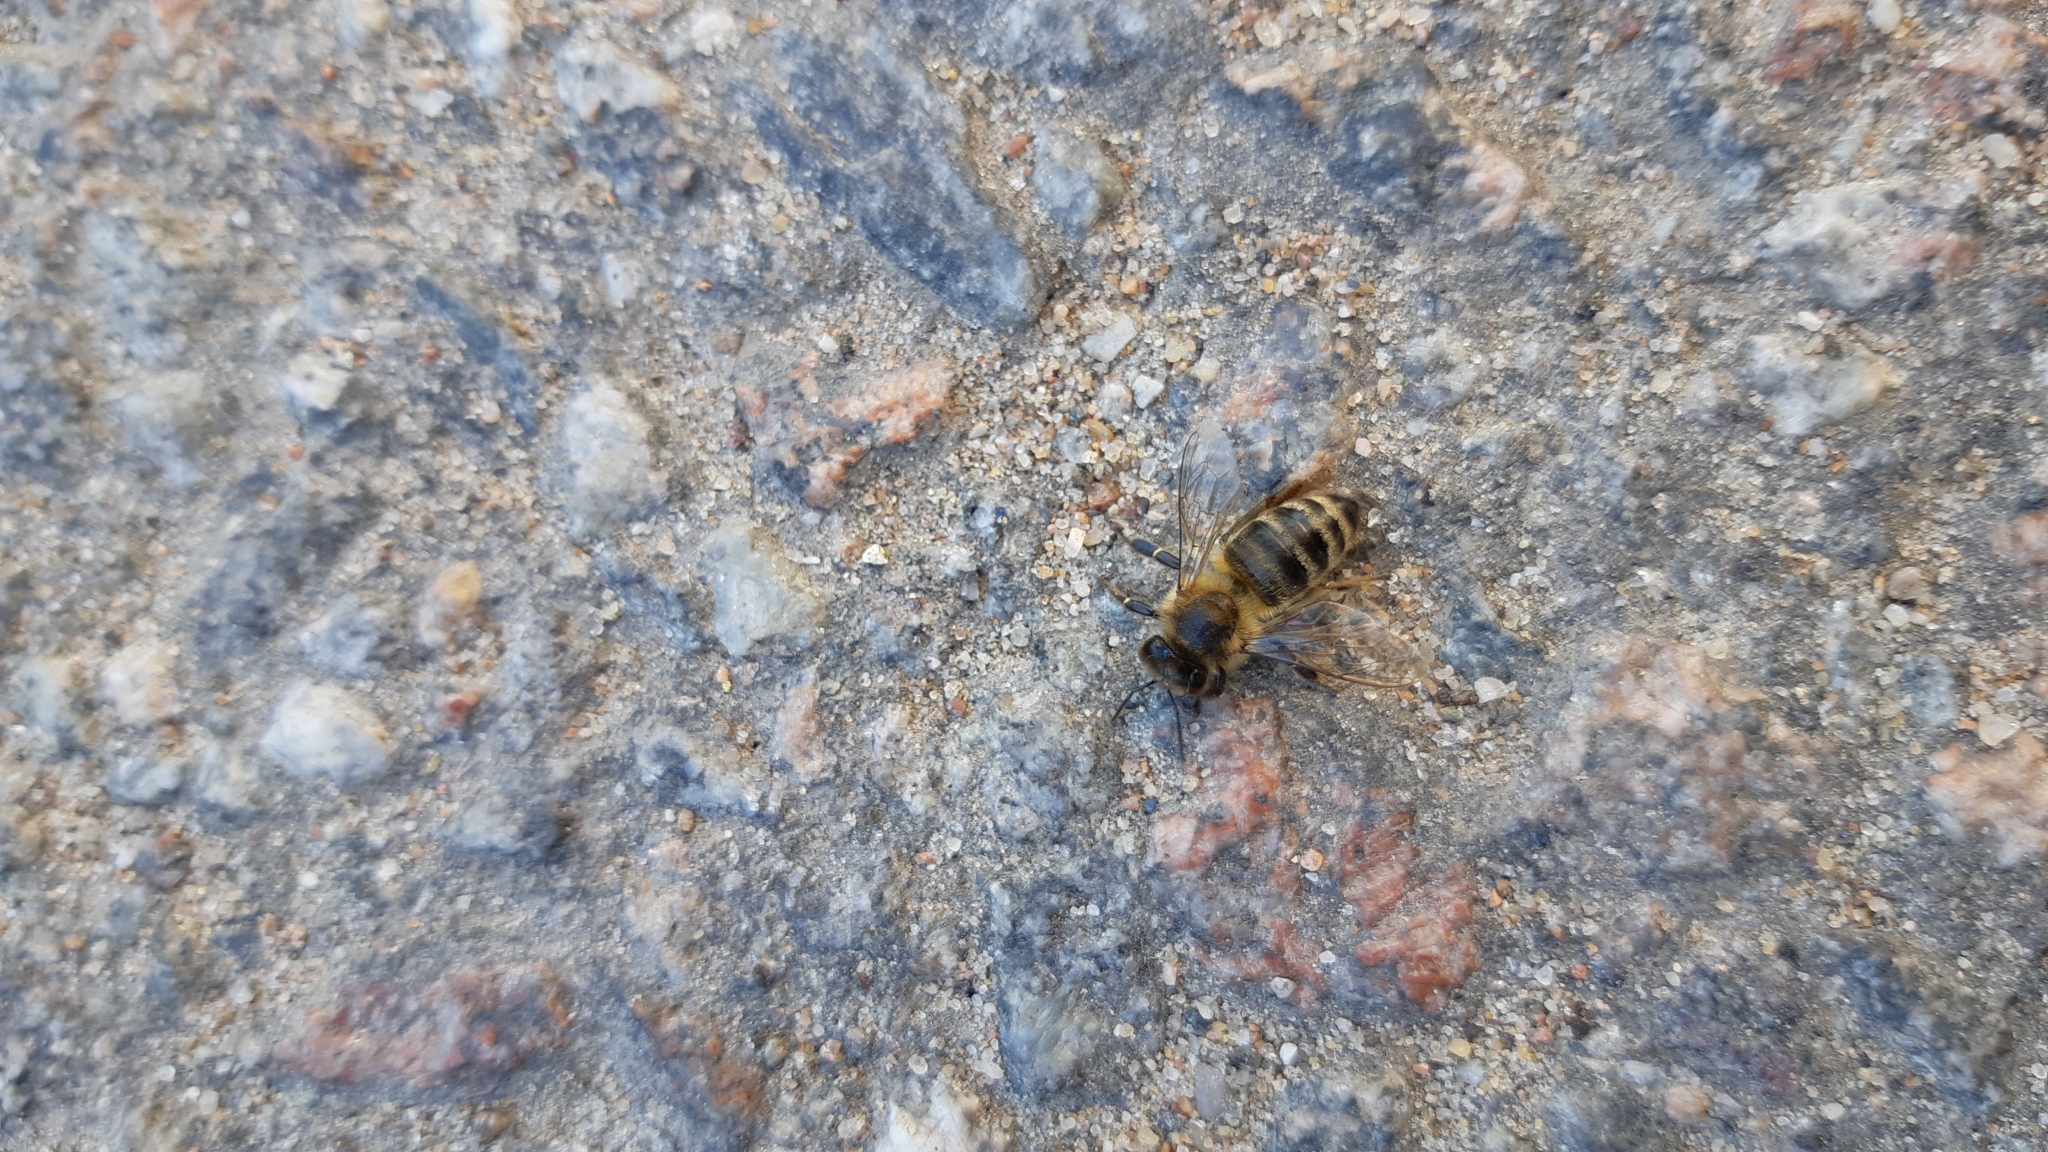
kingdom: Animalia
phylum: Arthropoda
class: Insecta
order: Hymenoptera
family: Apidae
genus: Apis
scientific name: Apis mellifera
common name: Honey bee
